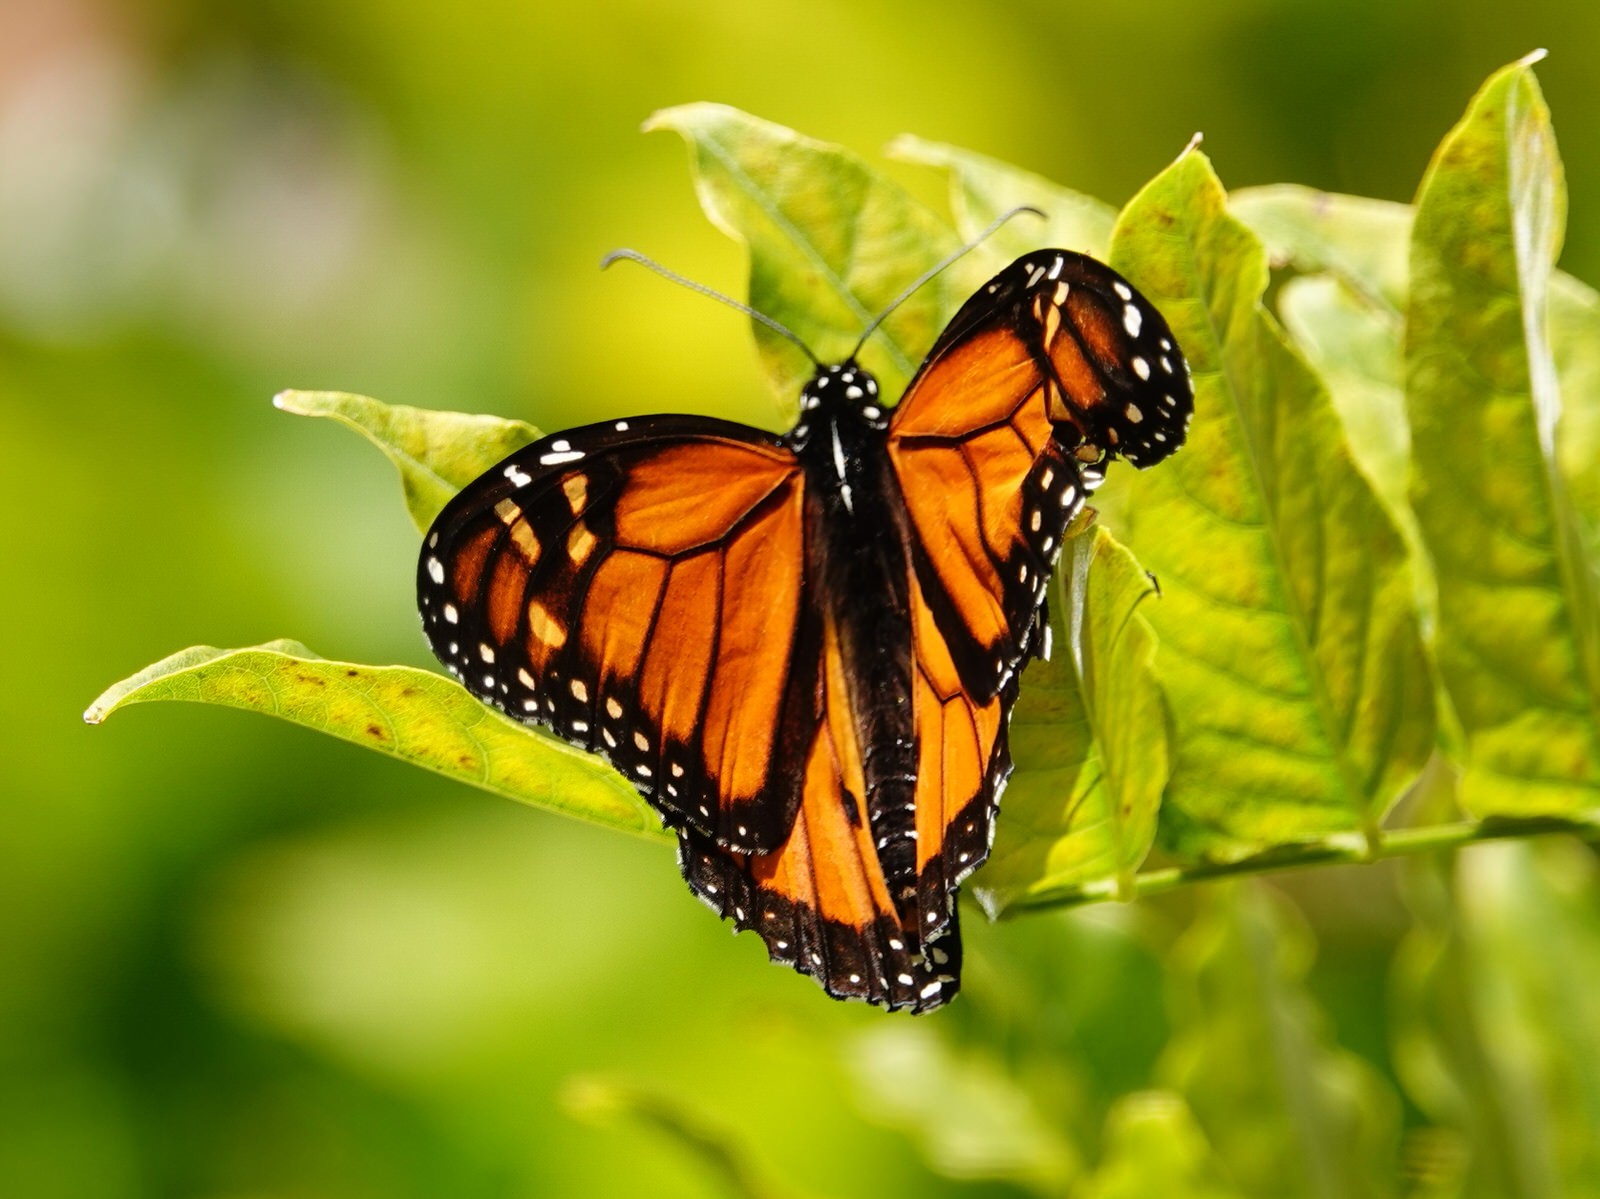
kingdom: Animalia
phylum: Arthropoda
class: Insecta
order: Lepidoptera
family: Nymphalidae
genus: Danaus
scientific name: Danaus plexippus
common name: Monarch
